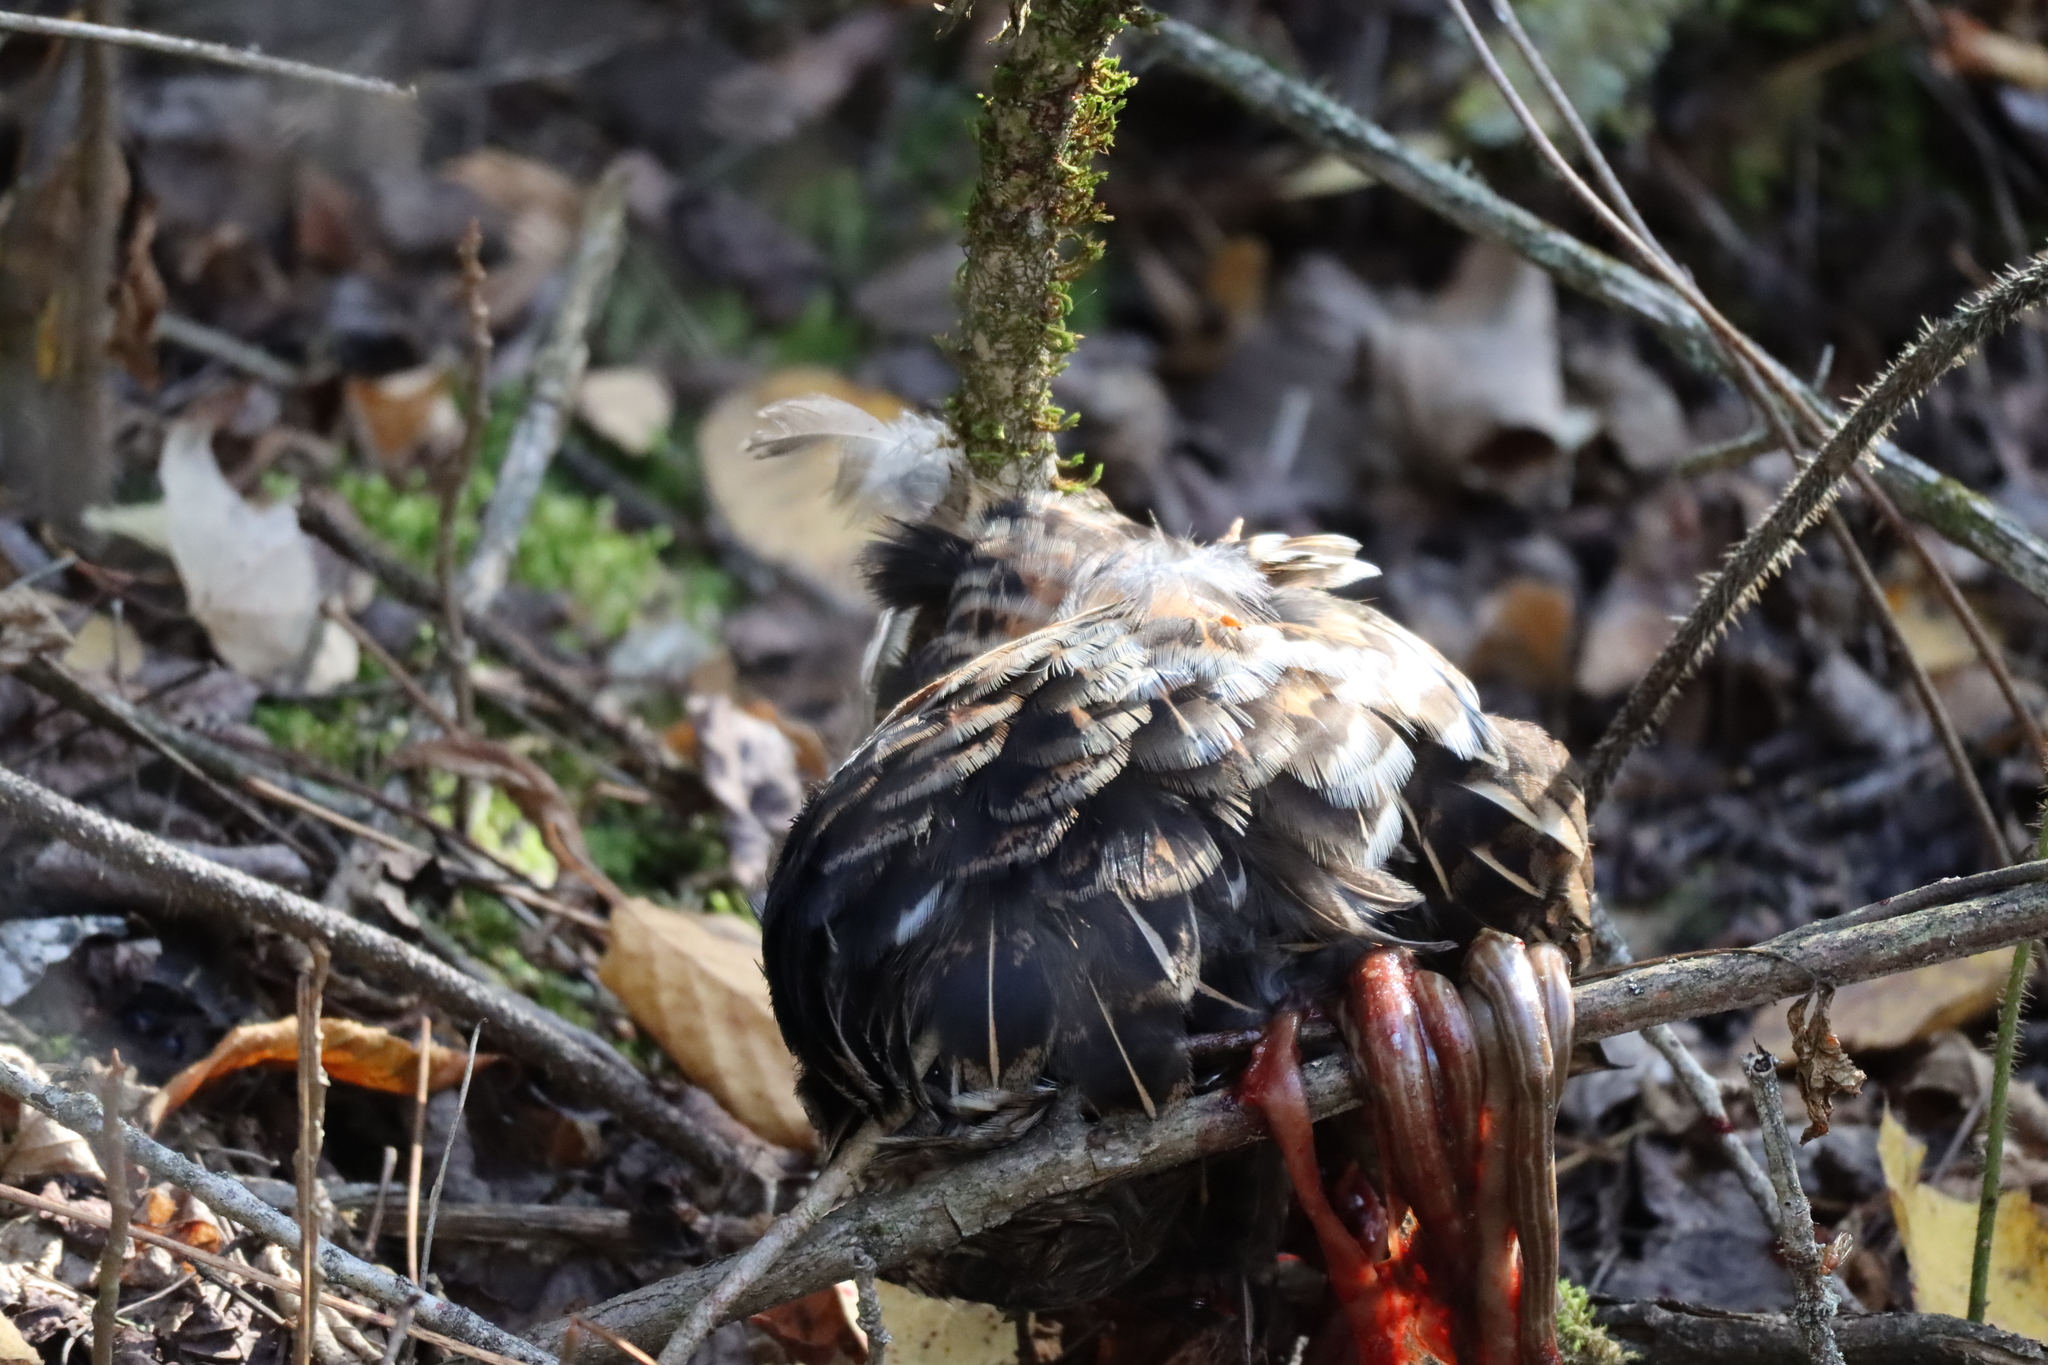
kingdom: Animalia
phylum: Chordata
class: Aves
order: Galliformes
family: Phasianidae
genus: Bonasa
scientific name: Bonasa umbellus
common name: Ruffed grouse
